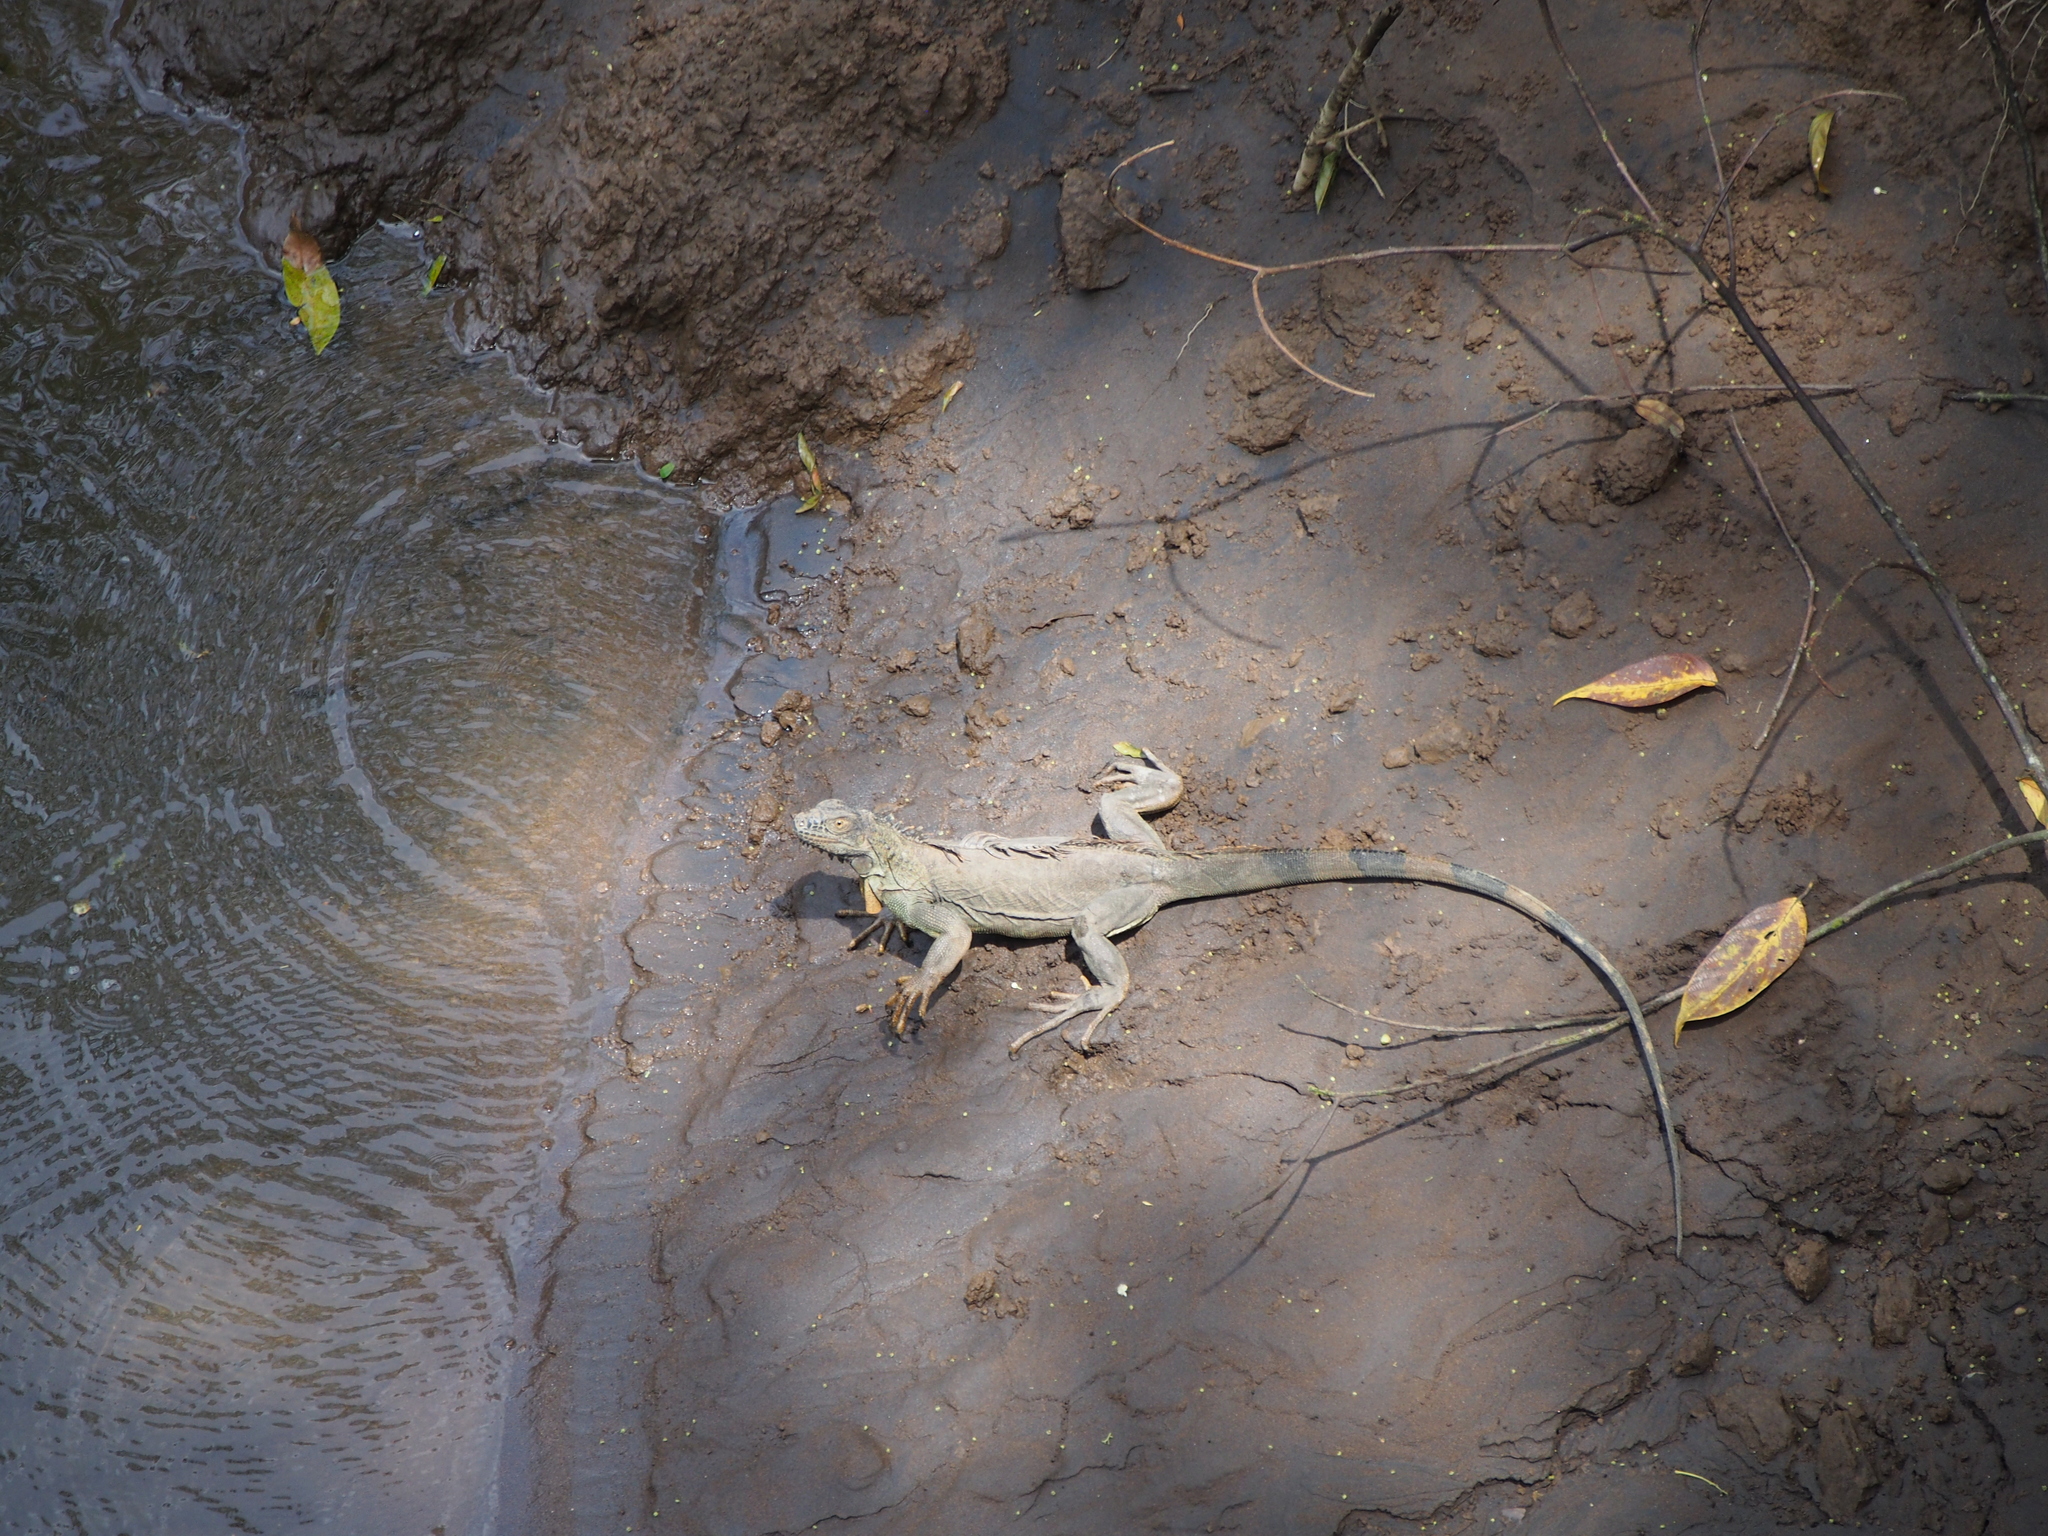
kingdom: Animalia
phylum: Chordata
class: Squamata
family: Iguanidae
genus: Iguana
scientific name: Iguana iguana
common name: Green iguana
